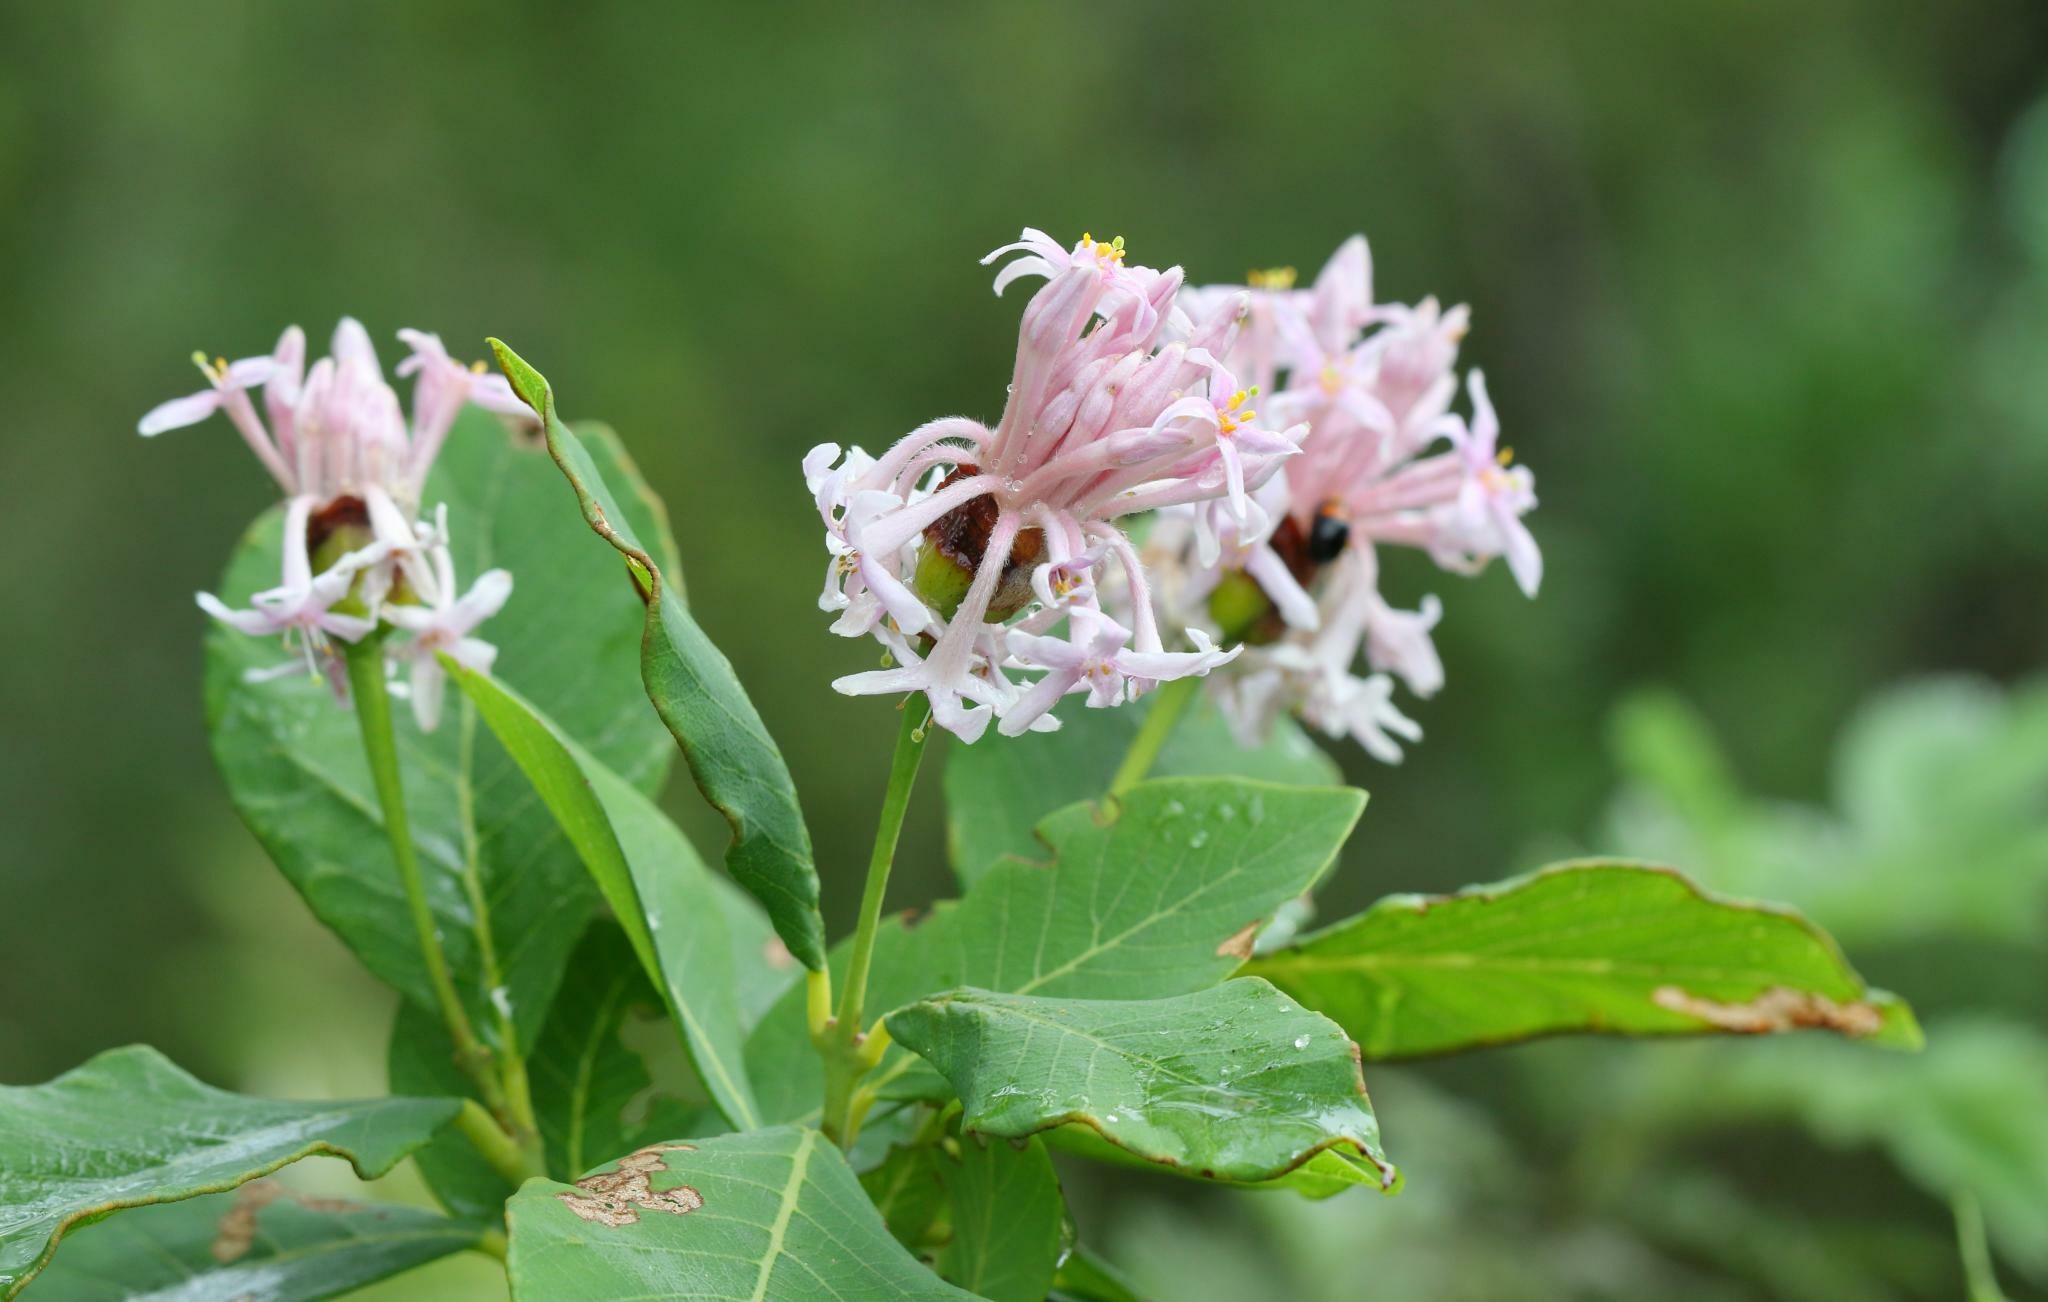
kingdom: Plantae
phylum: Tracheophyta
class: Magnoliopsida
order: Malvales
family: Thymelaeaceae
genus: Dais
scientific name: Dais cotinifolia
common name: Pompon tree
